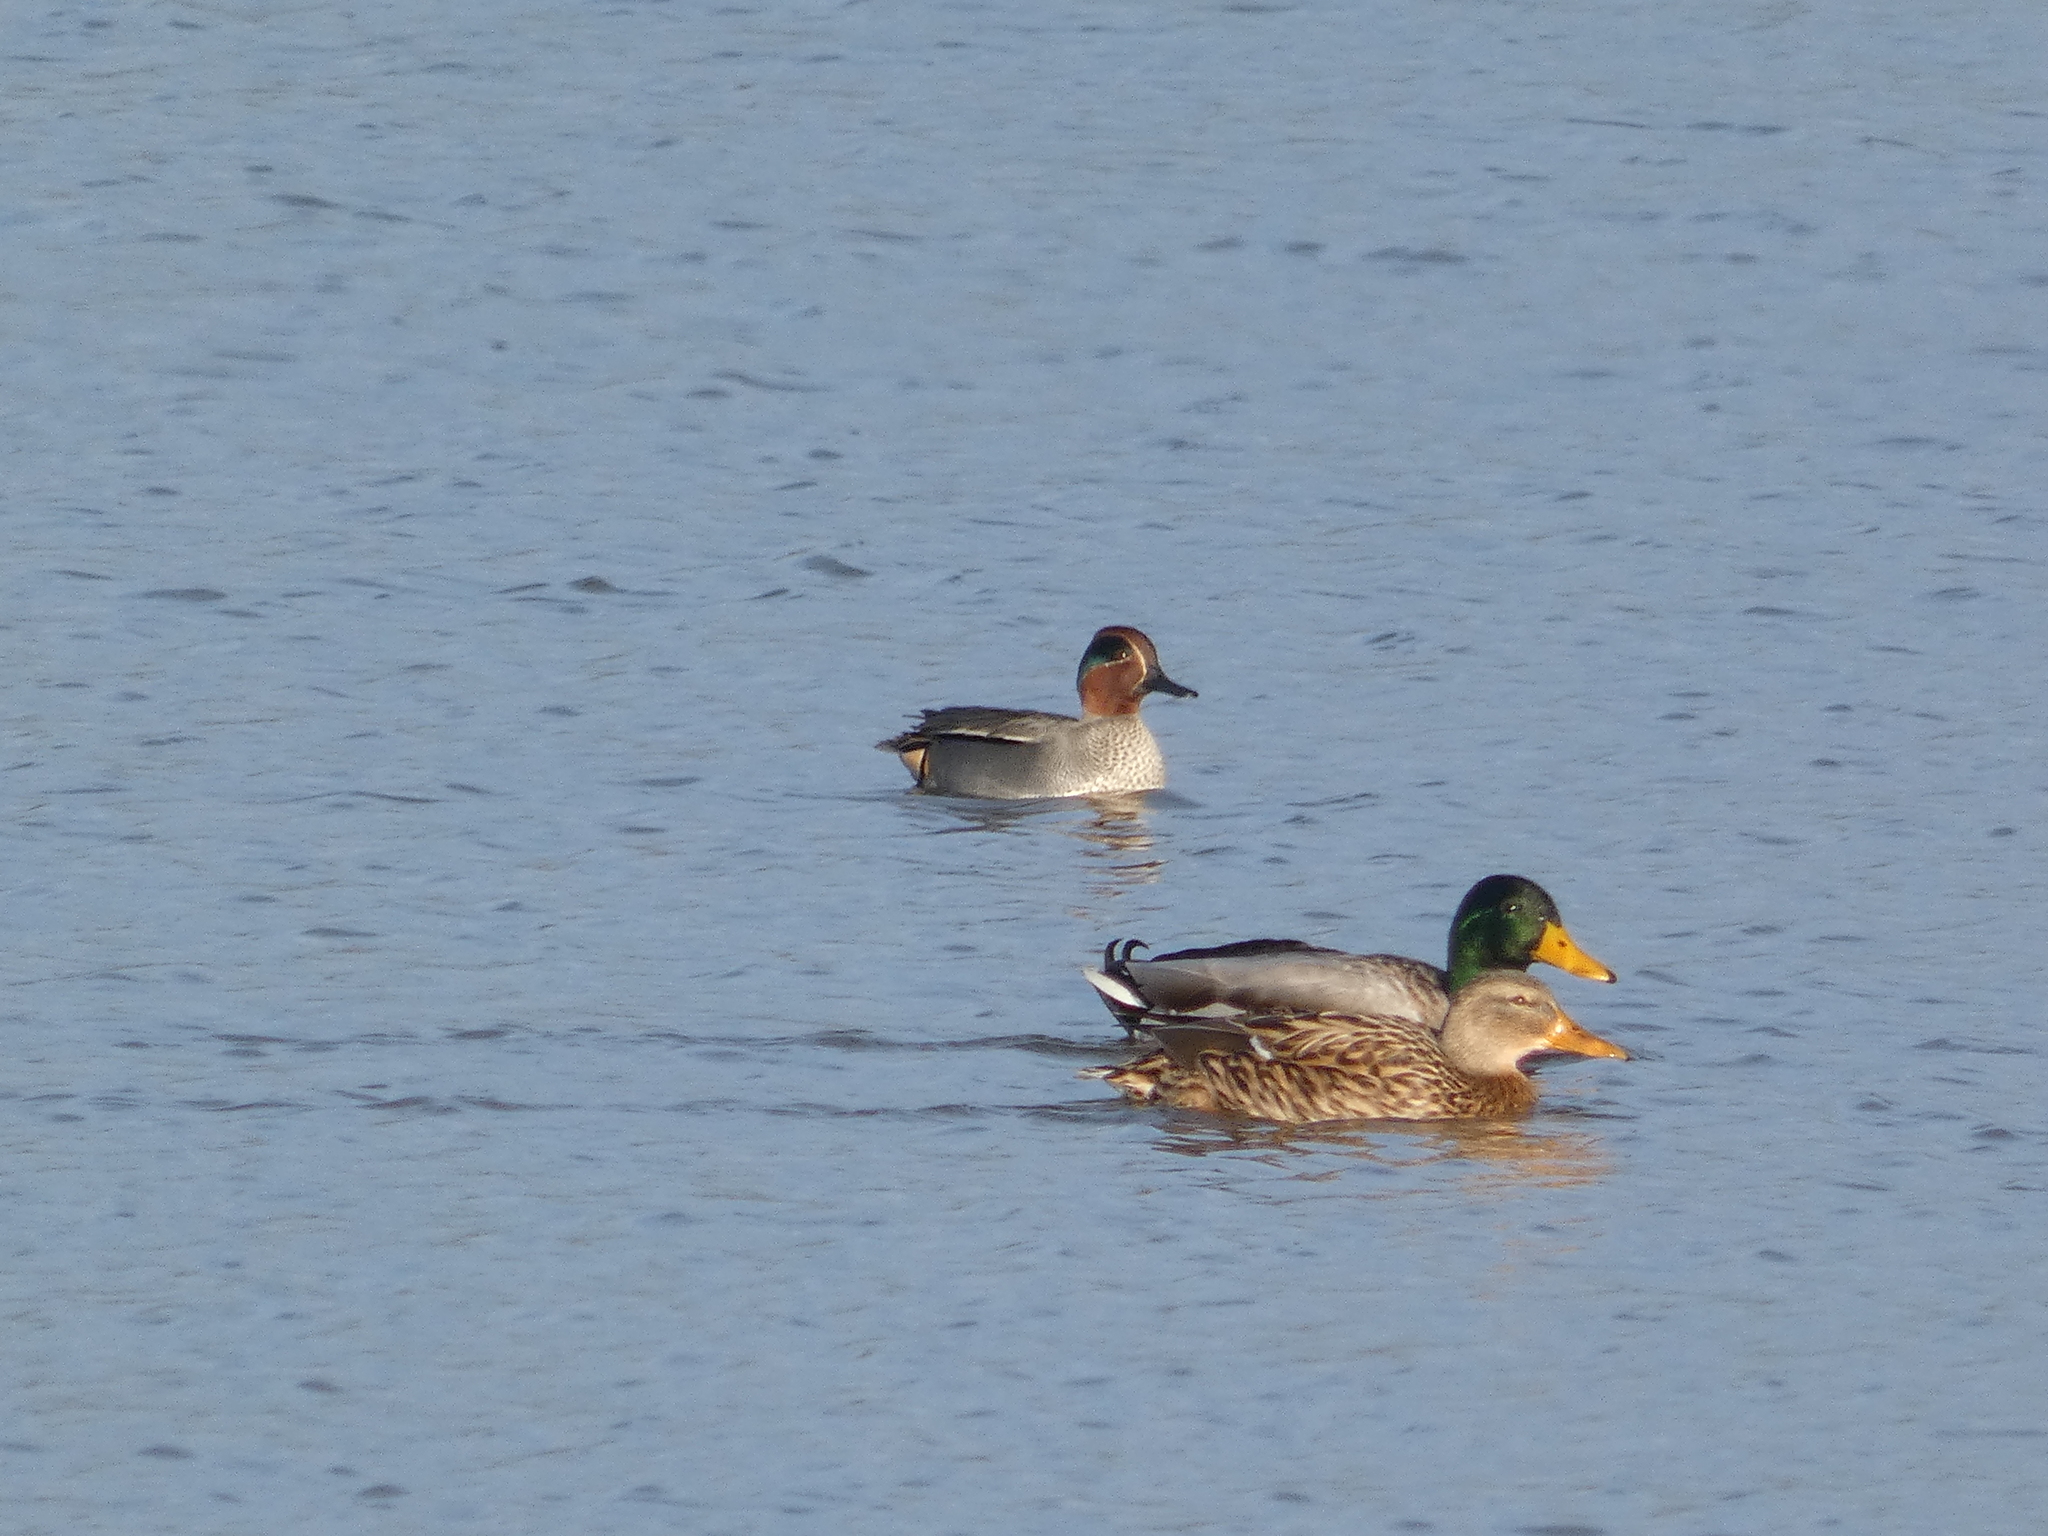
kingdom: Animalia
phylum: Chordata
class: Aves
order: Anseriformes
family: Anatidae
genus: Anas
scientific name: Anas platyrhynchos
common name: Mallard
